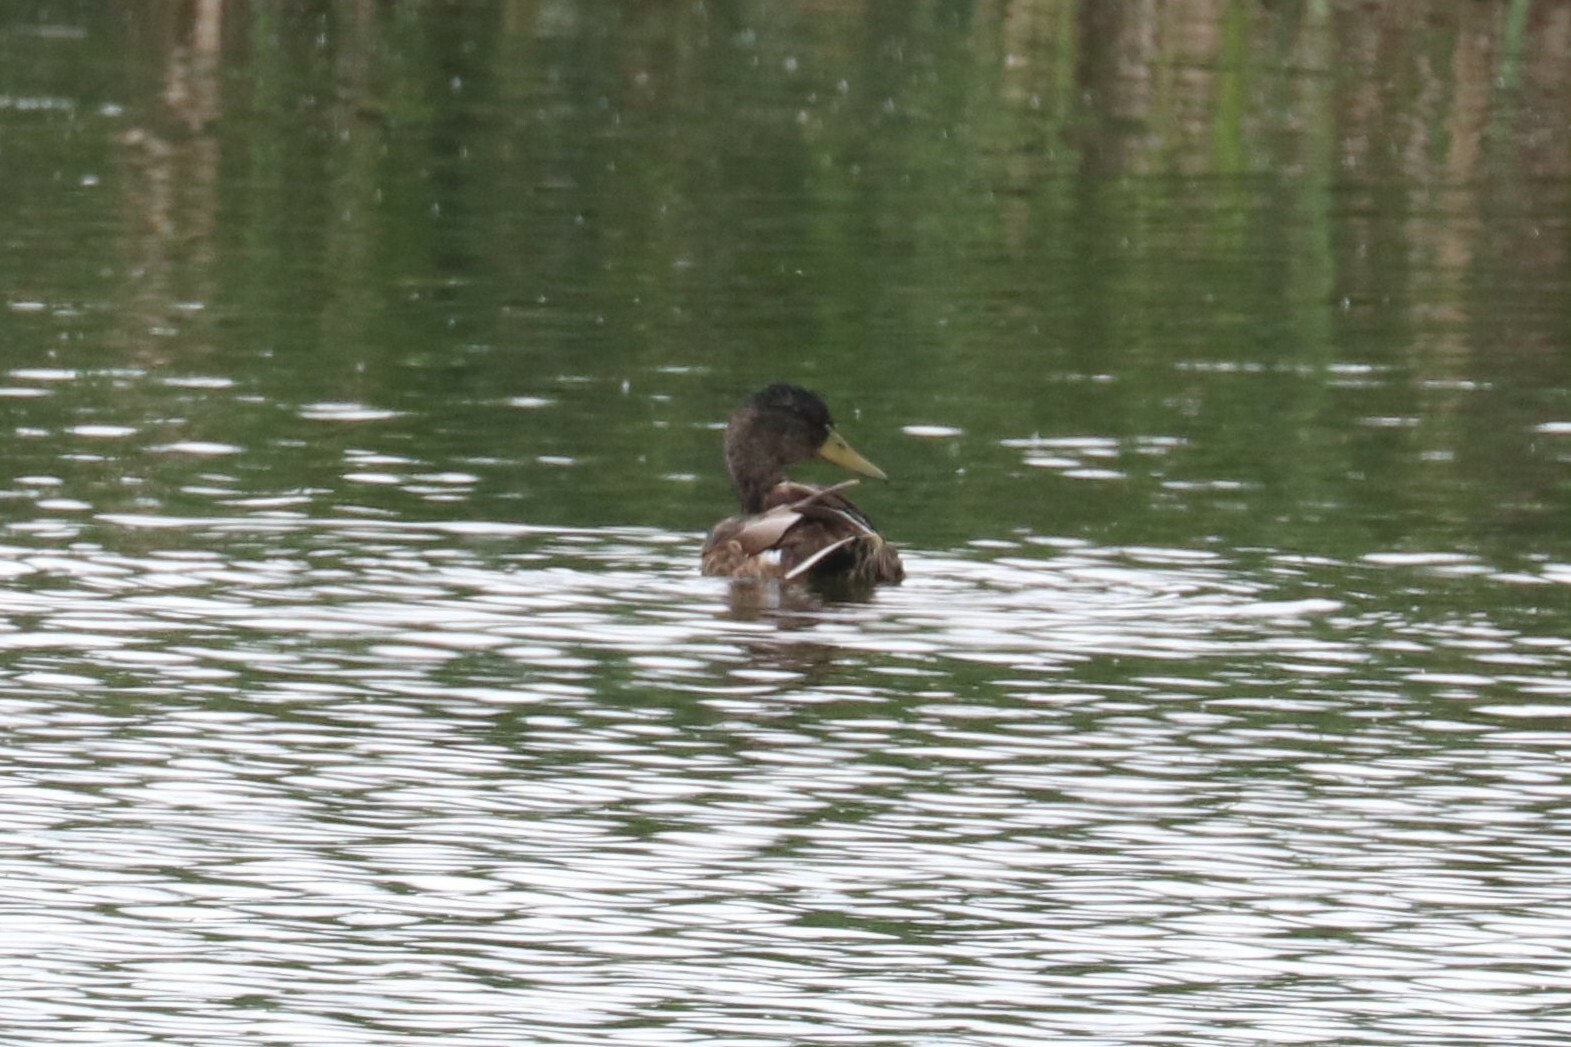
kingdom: Animalia
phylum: Chordata
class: Aves
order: Anseriformes
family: Anatidae
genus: Anas
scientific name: Anas platyrhynchos
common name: Mallard
